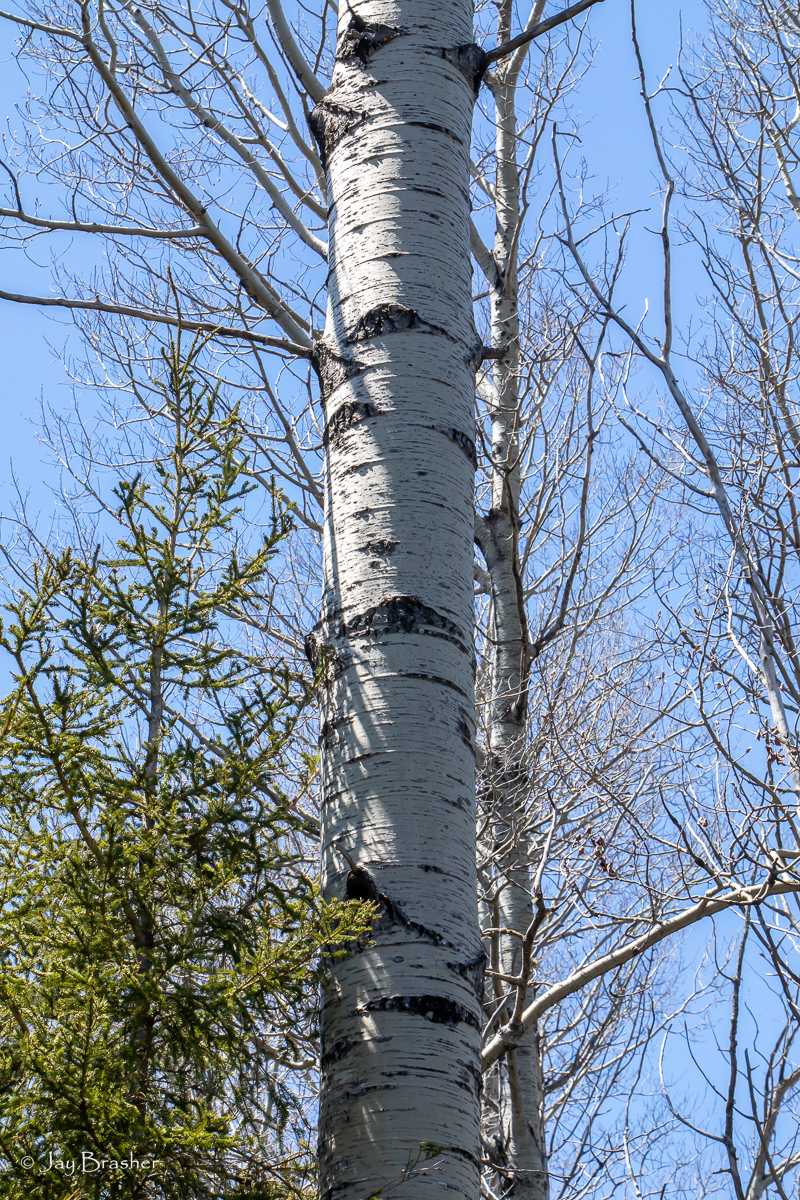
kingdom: Plantae
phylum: Tracheophyta
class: Magnoliopsida
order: Malpighiales
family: Salicaceae
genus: Populus
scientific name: Populus tremuloides
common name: Quaking aspen
